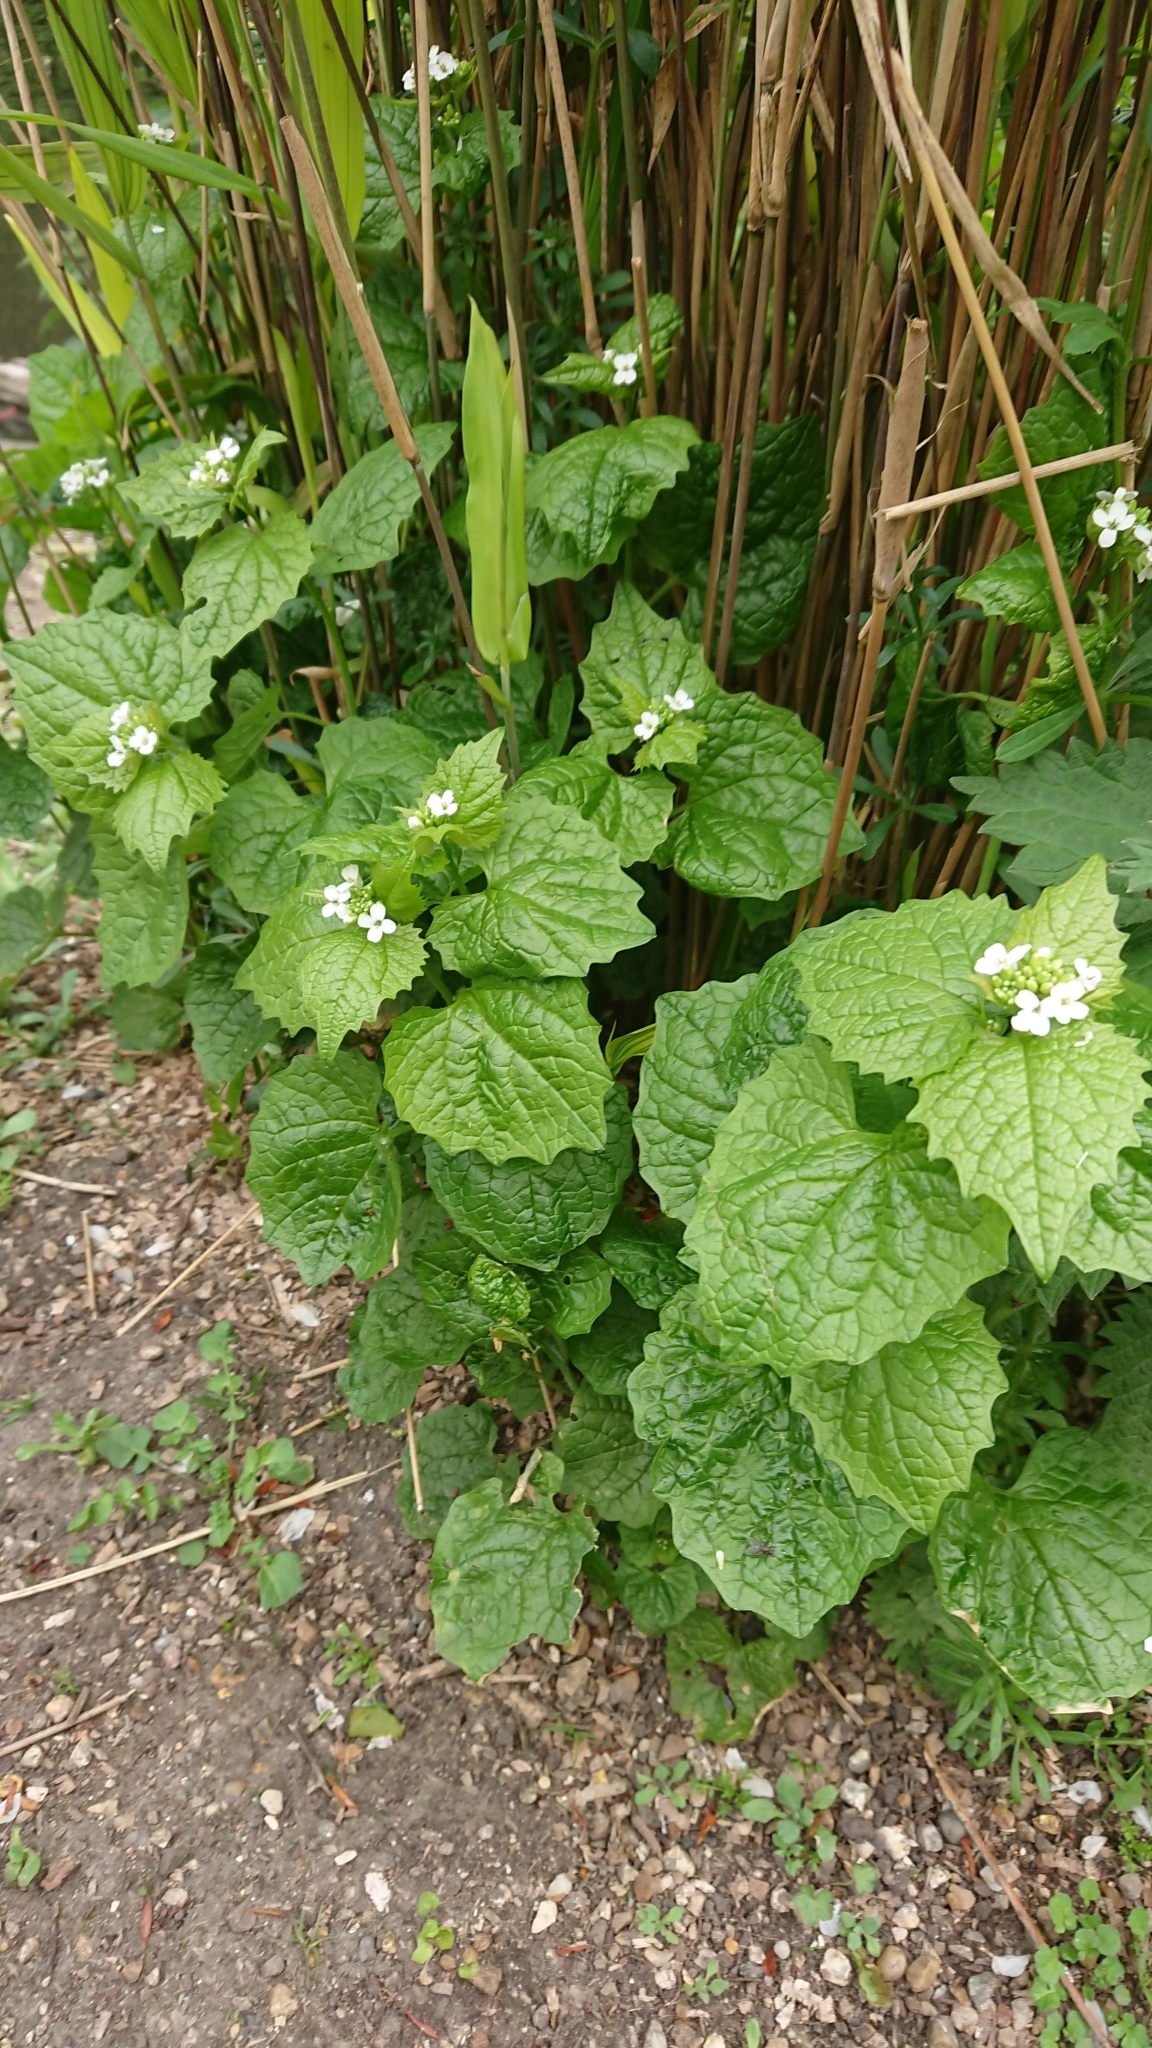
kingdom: Plantae
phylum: Tracheophyta
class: Magnoliopsida
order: Brassicales
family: Brassicaceae
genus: Alliaria
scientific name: Alliaria petiolata
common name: Garlic mustard
